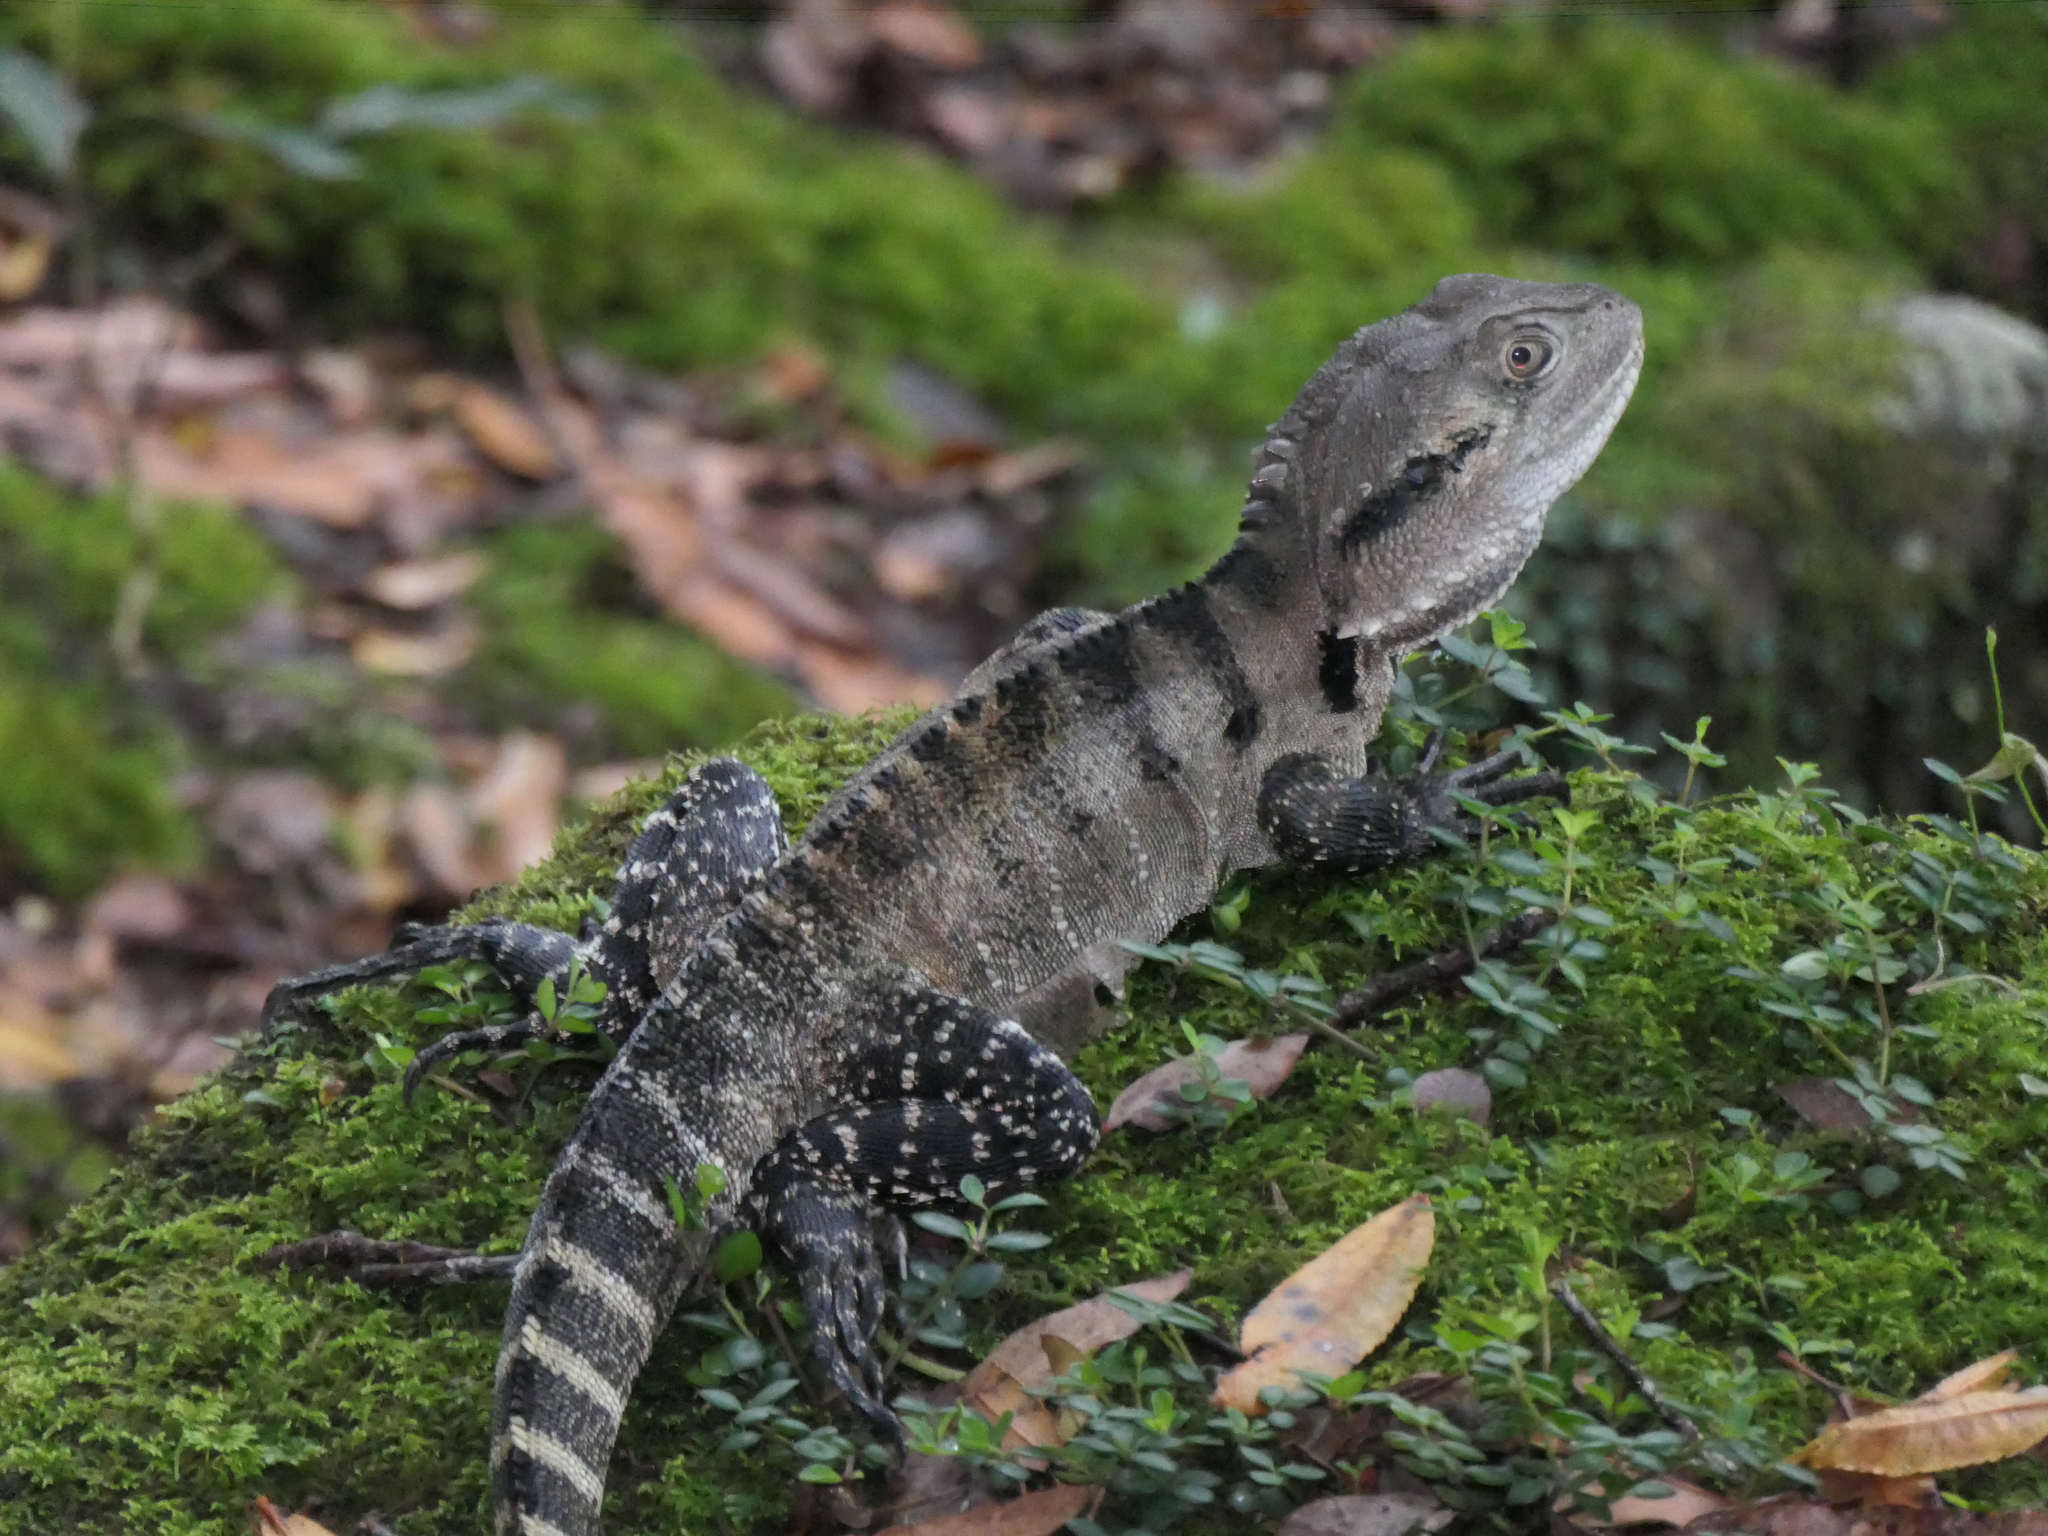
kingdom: Animalia
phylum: Chordata
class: Squamata
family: Agamidae
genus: Intellagama
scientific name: Intellagama lesueurii
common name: Eastern water dragon
